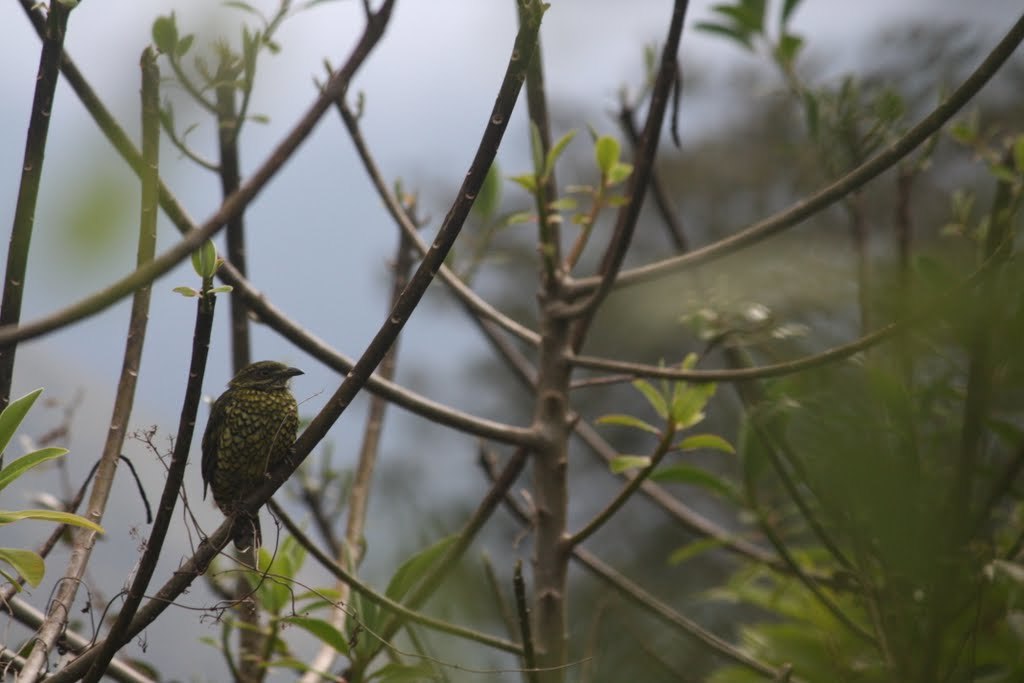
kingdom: Animalia
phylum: Chordata
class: Aves
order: Passeriformes
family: Cotingidae
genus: Ampelioides
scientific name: Ampelioides tschudii
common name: Scaled fruiteater
